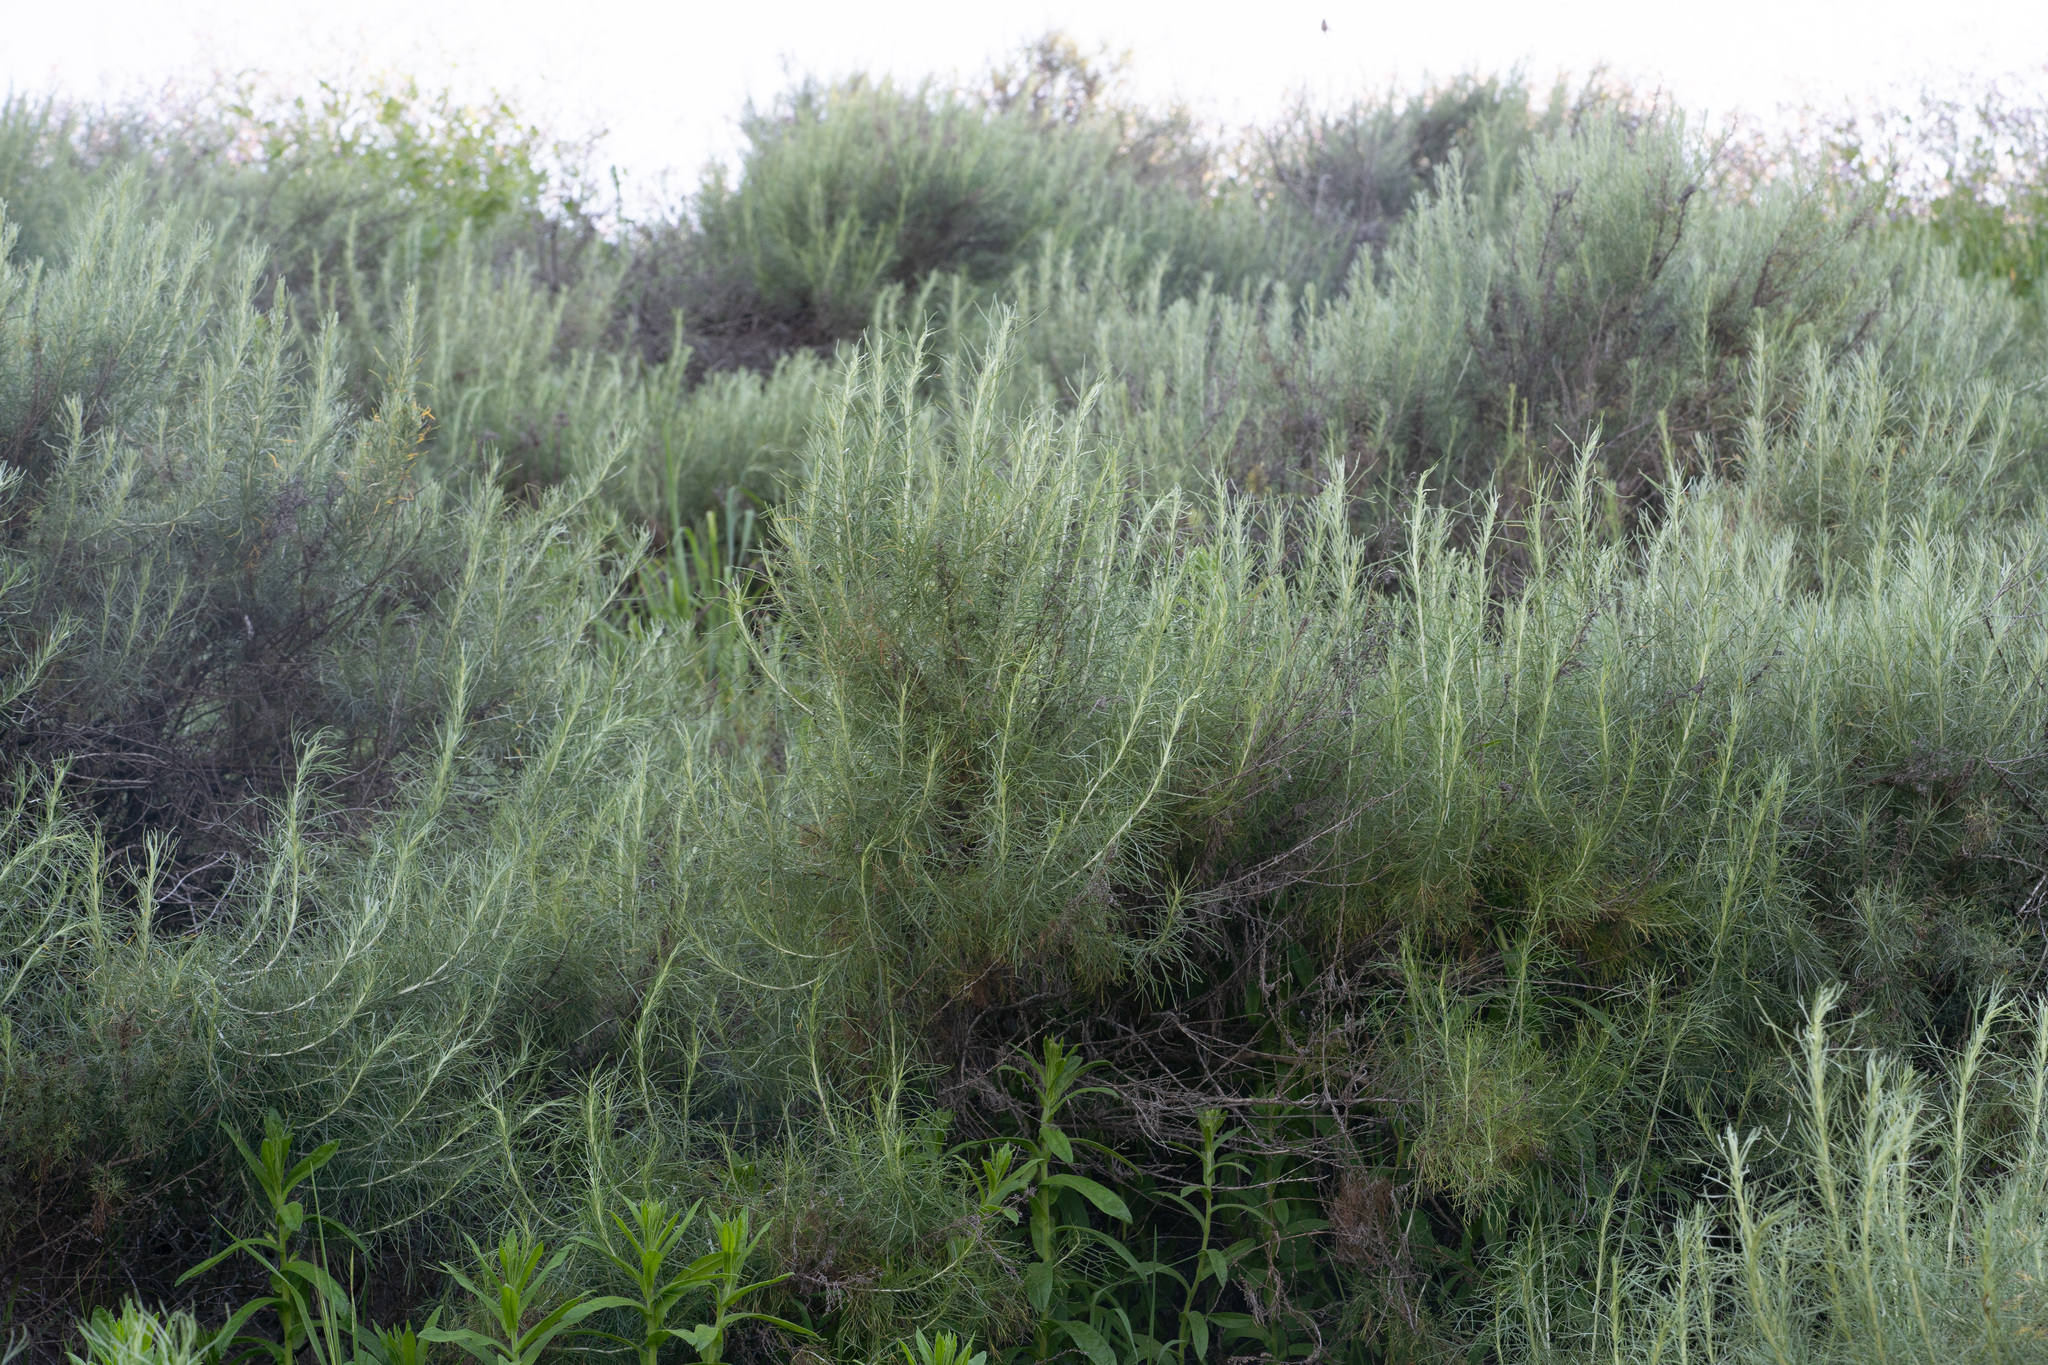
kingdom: Plantae
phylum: Tracheophyta
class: Magnoliopsida
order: Asterales
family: Asteraceae
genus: Artemisia
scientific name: Artemisia californica
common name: California sagebrush
